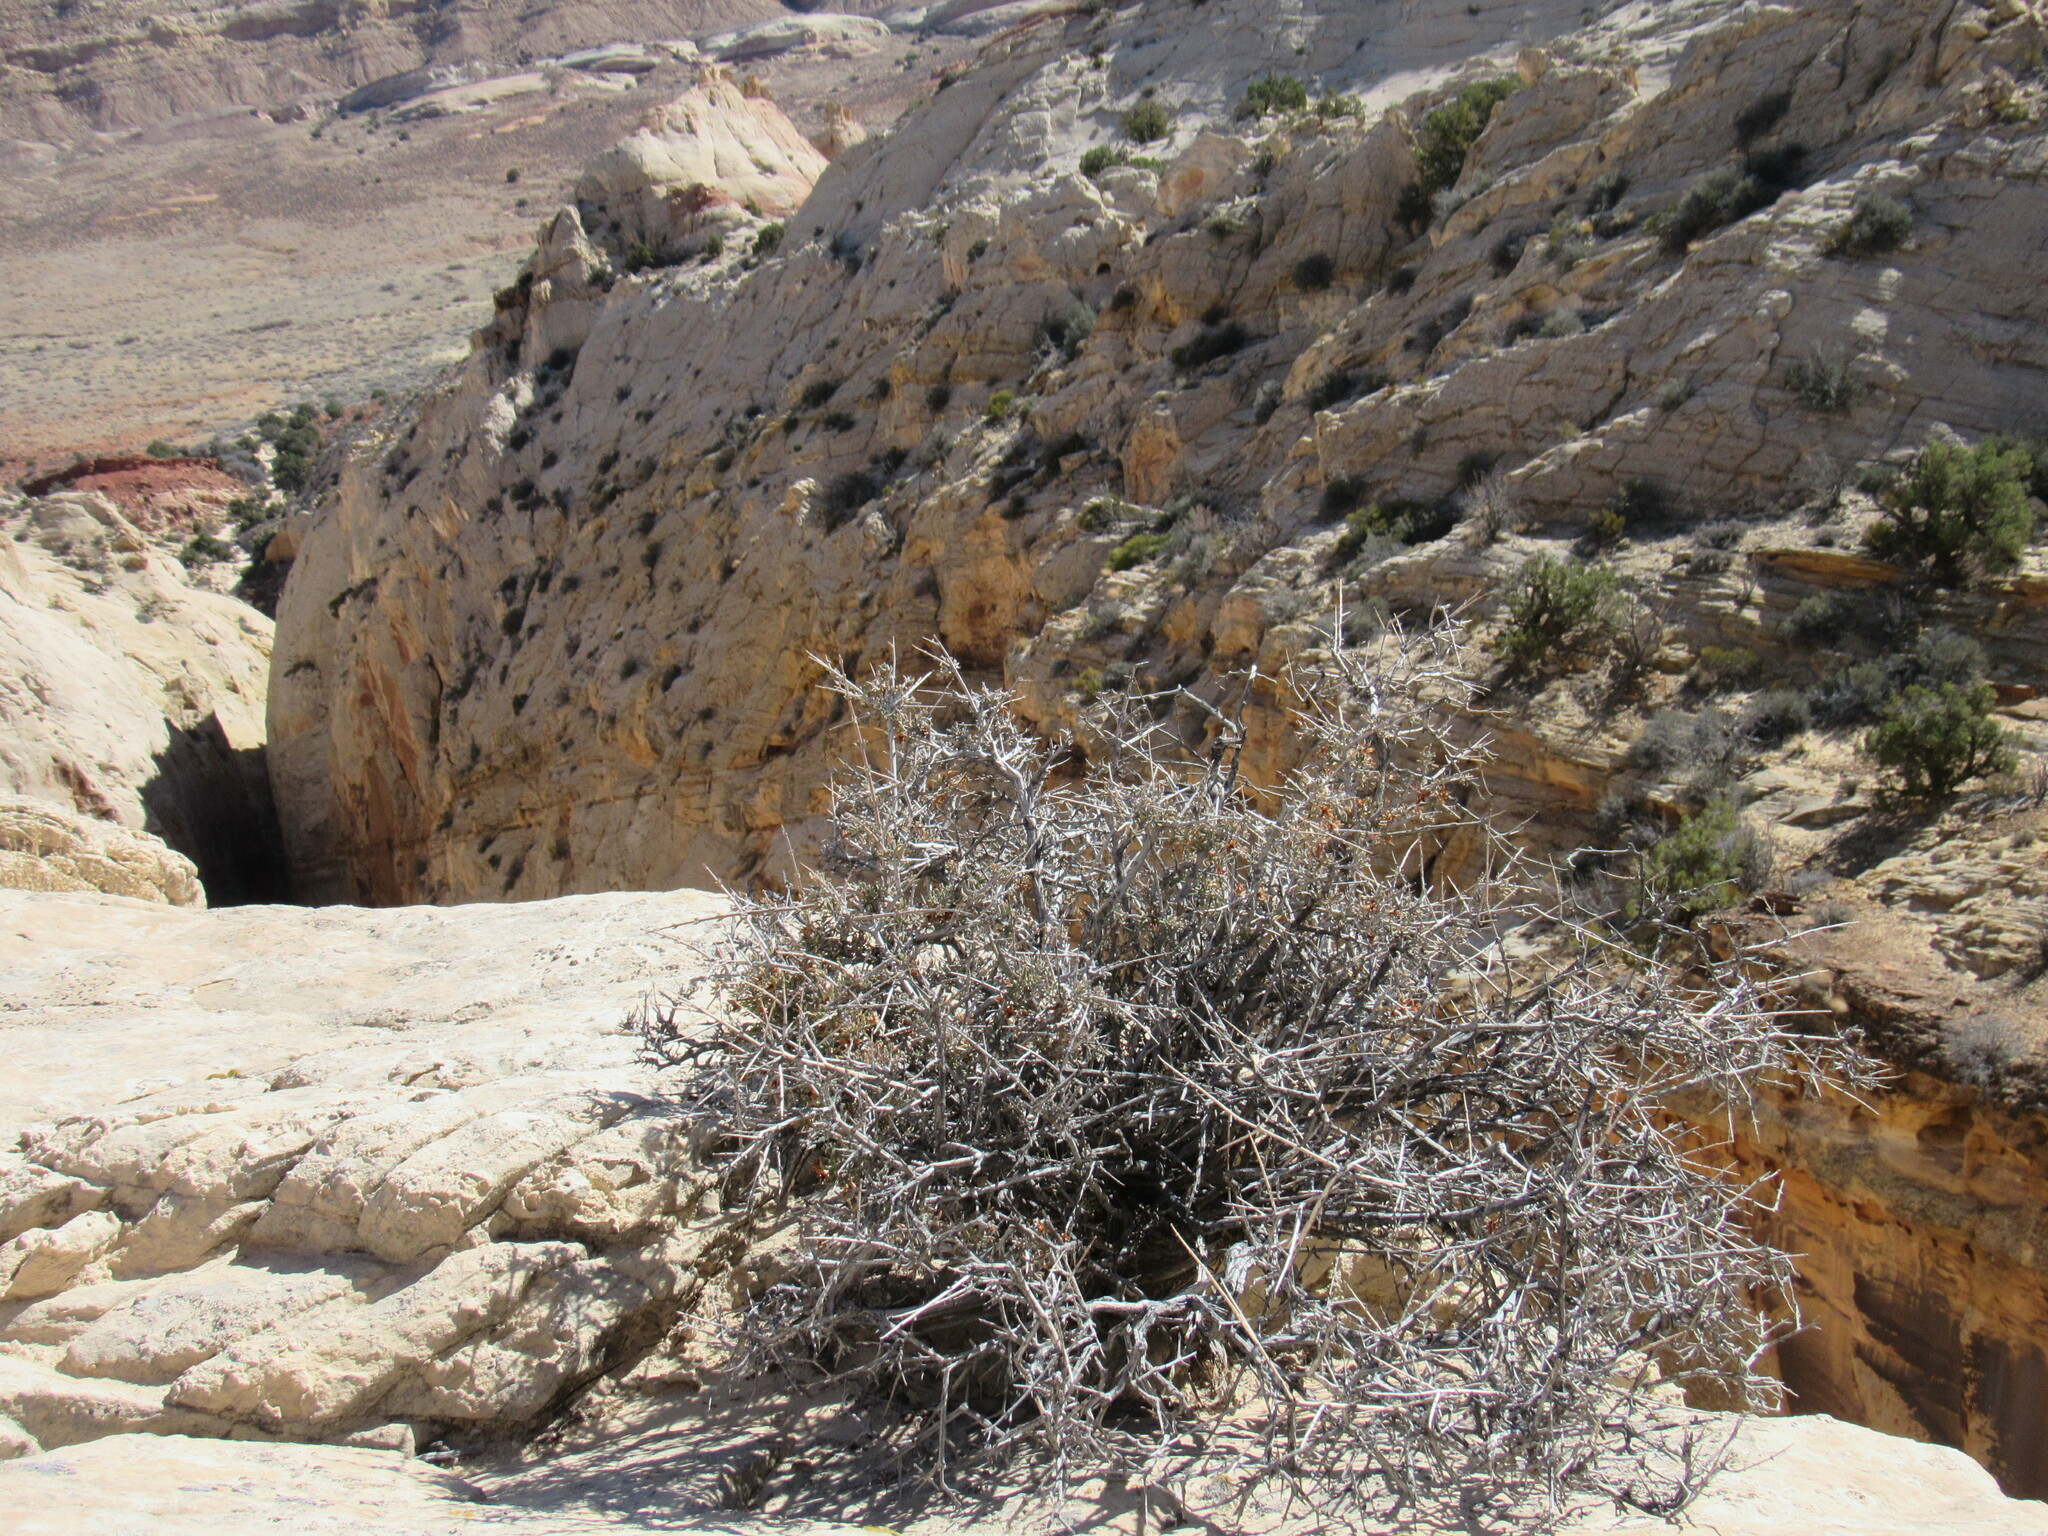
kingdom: Plantae
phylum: Tracheophyta
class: Magnoliopsida
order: Rosales
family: Rosaceae
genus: Coleogyne
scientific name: Coleogyne ramosissima
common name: Blackbrush
